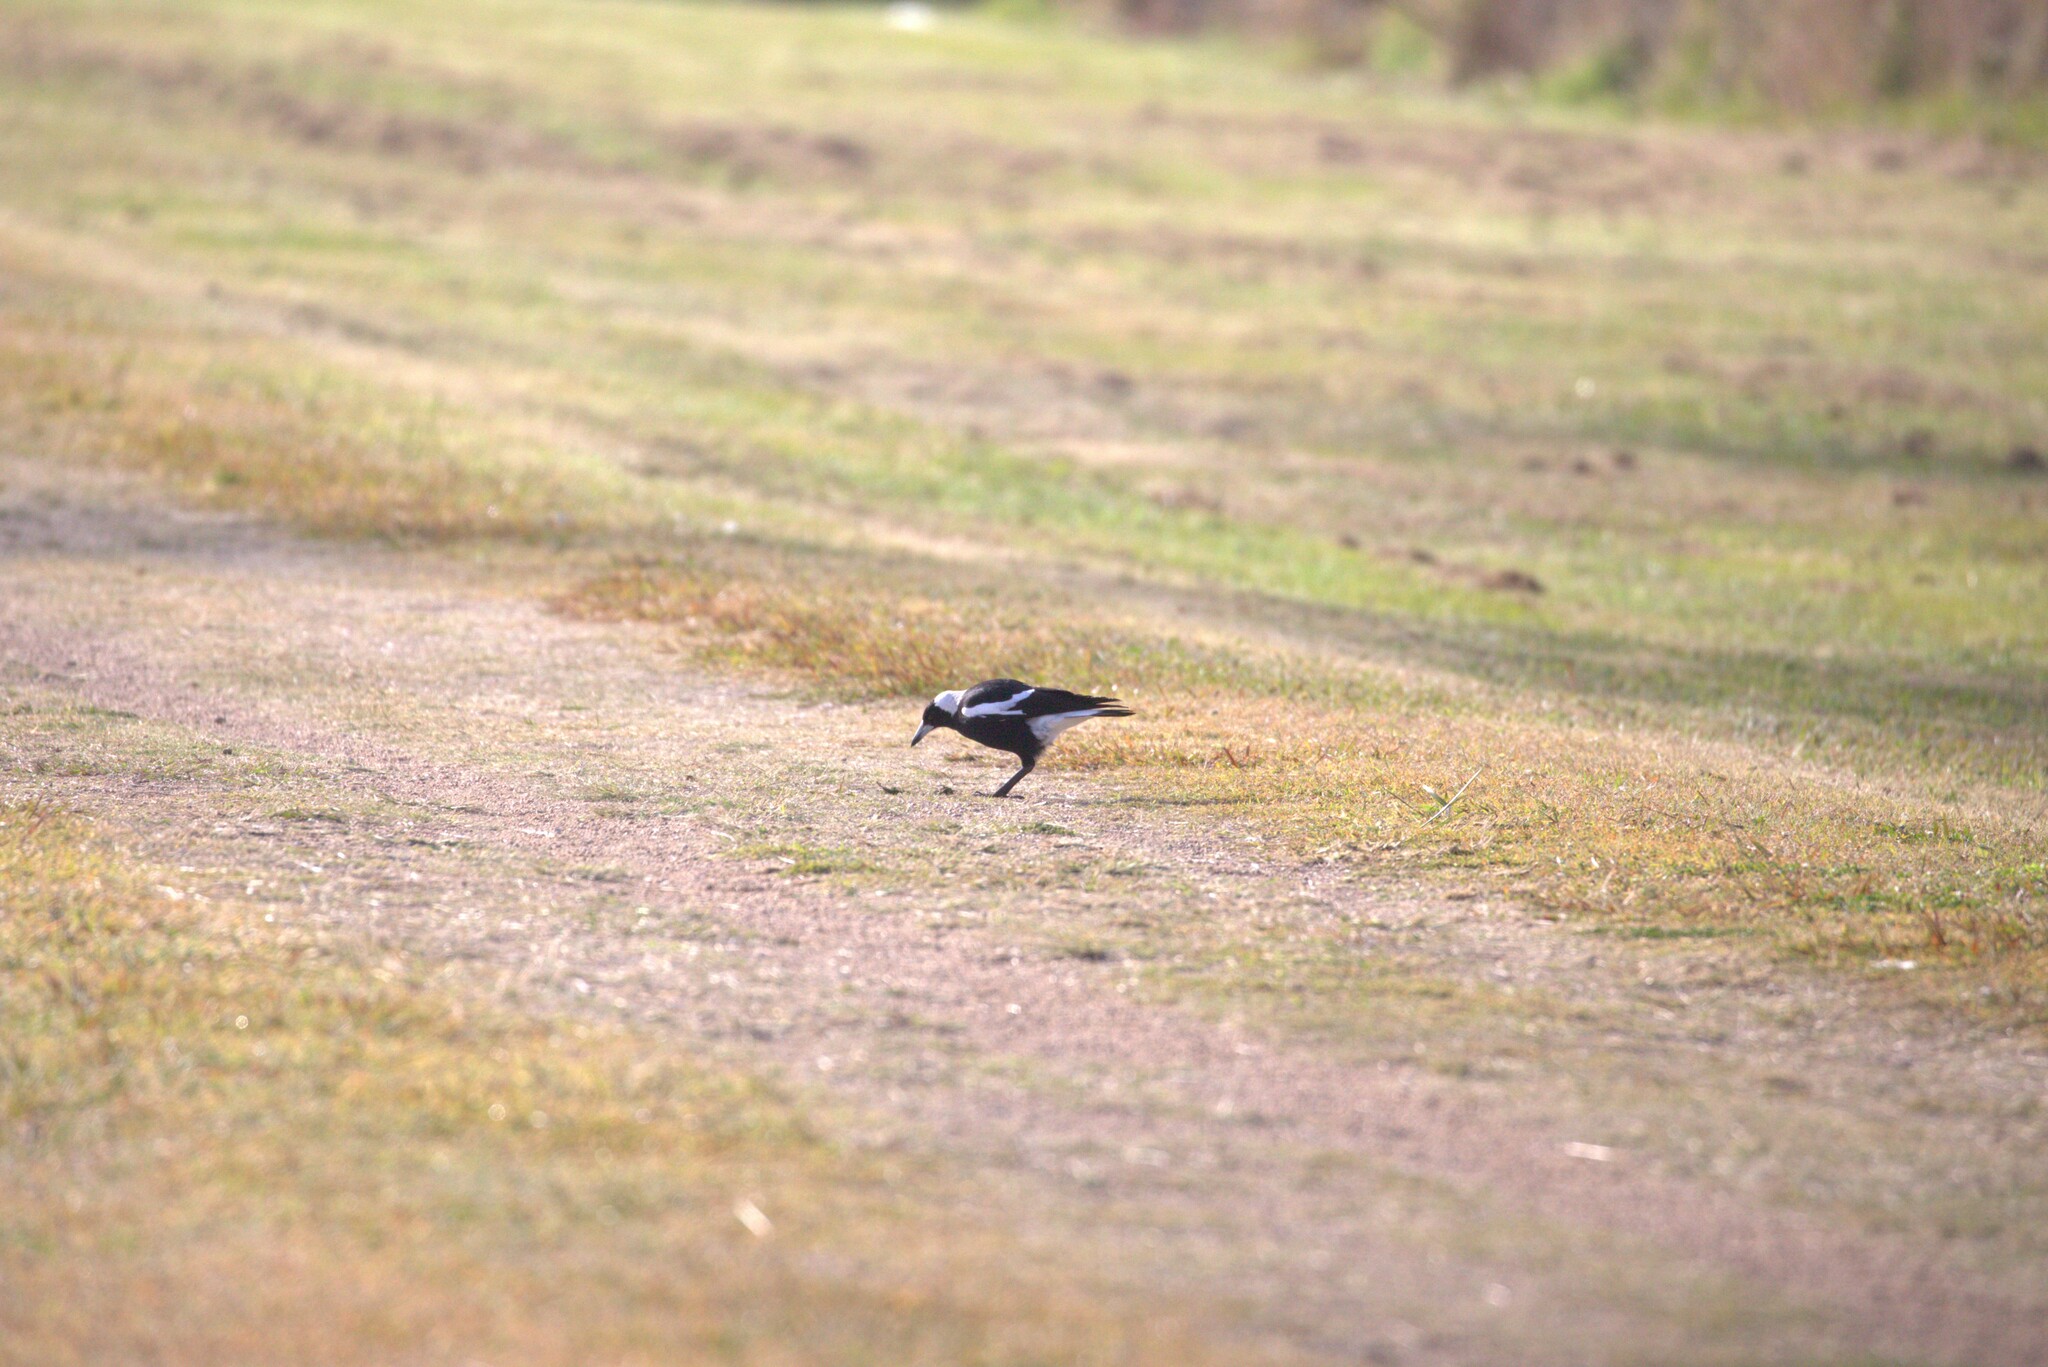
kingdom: Animalia
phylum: Chordata
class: Aves
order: Passeriformes
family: Cracticidae
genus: Gymnorhina
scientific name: Gymnorhina tibicen
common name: Australian magpie
